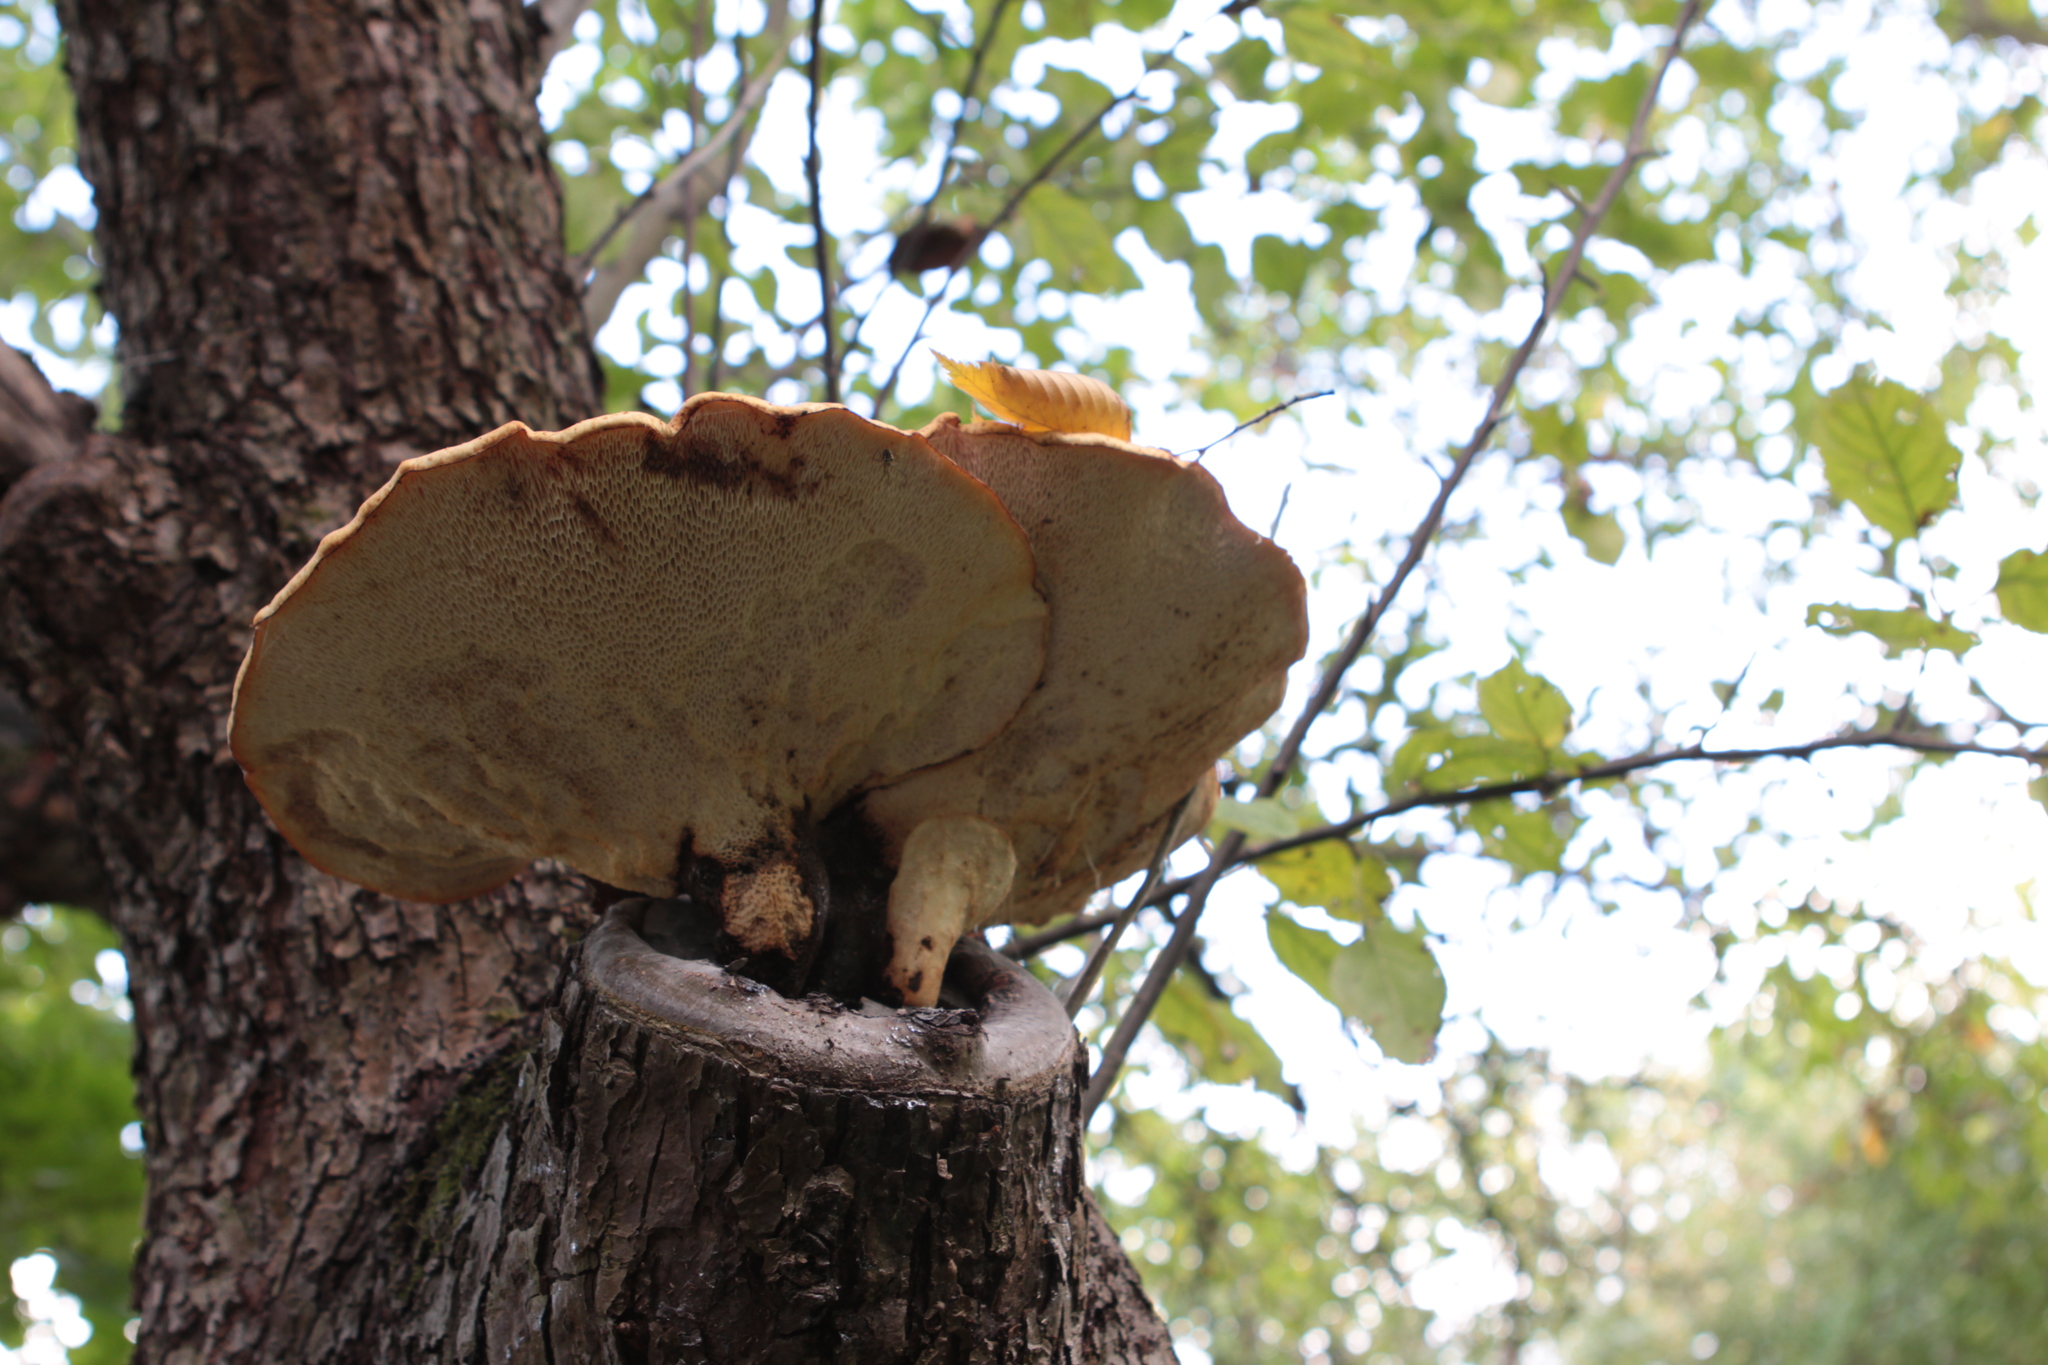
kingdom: Fungi
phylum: Basidiomycota
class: Agaricomycetes
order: Polyporales
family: Polyporaceae
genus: Cerioporus
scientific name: Cerioporus squamosus
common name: Dryad's saddle
